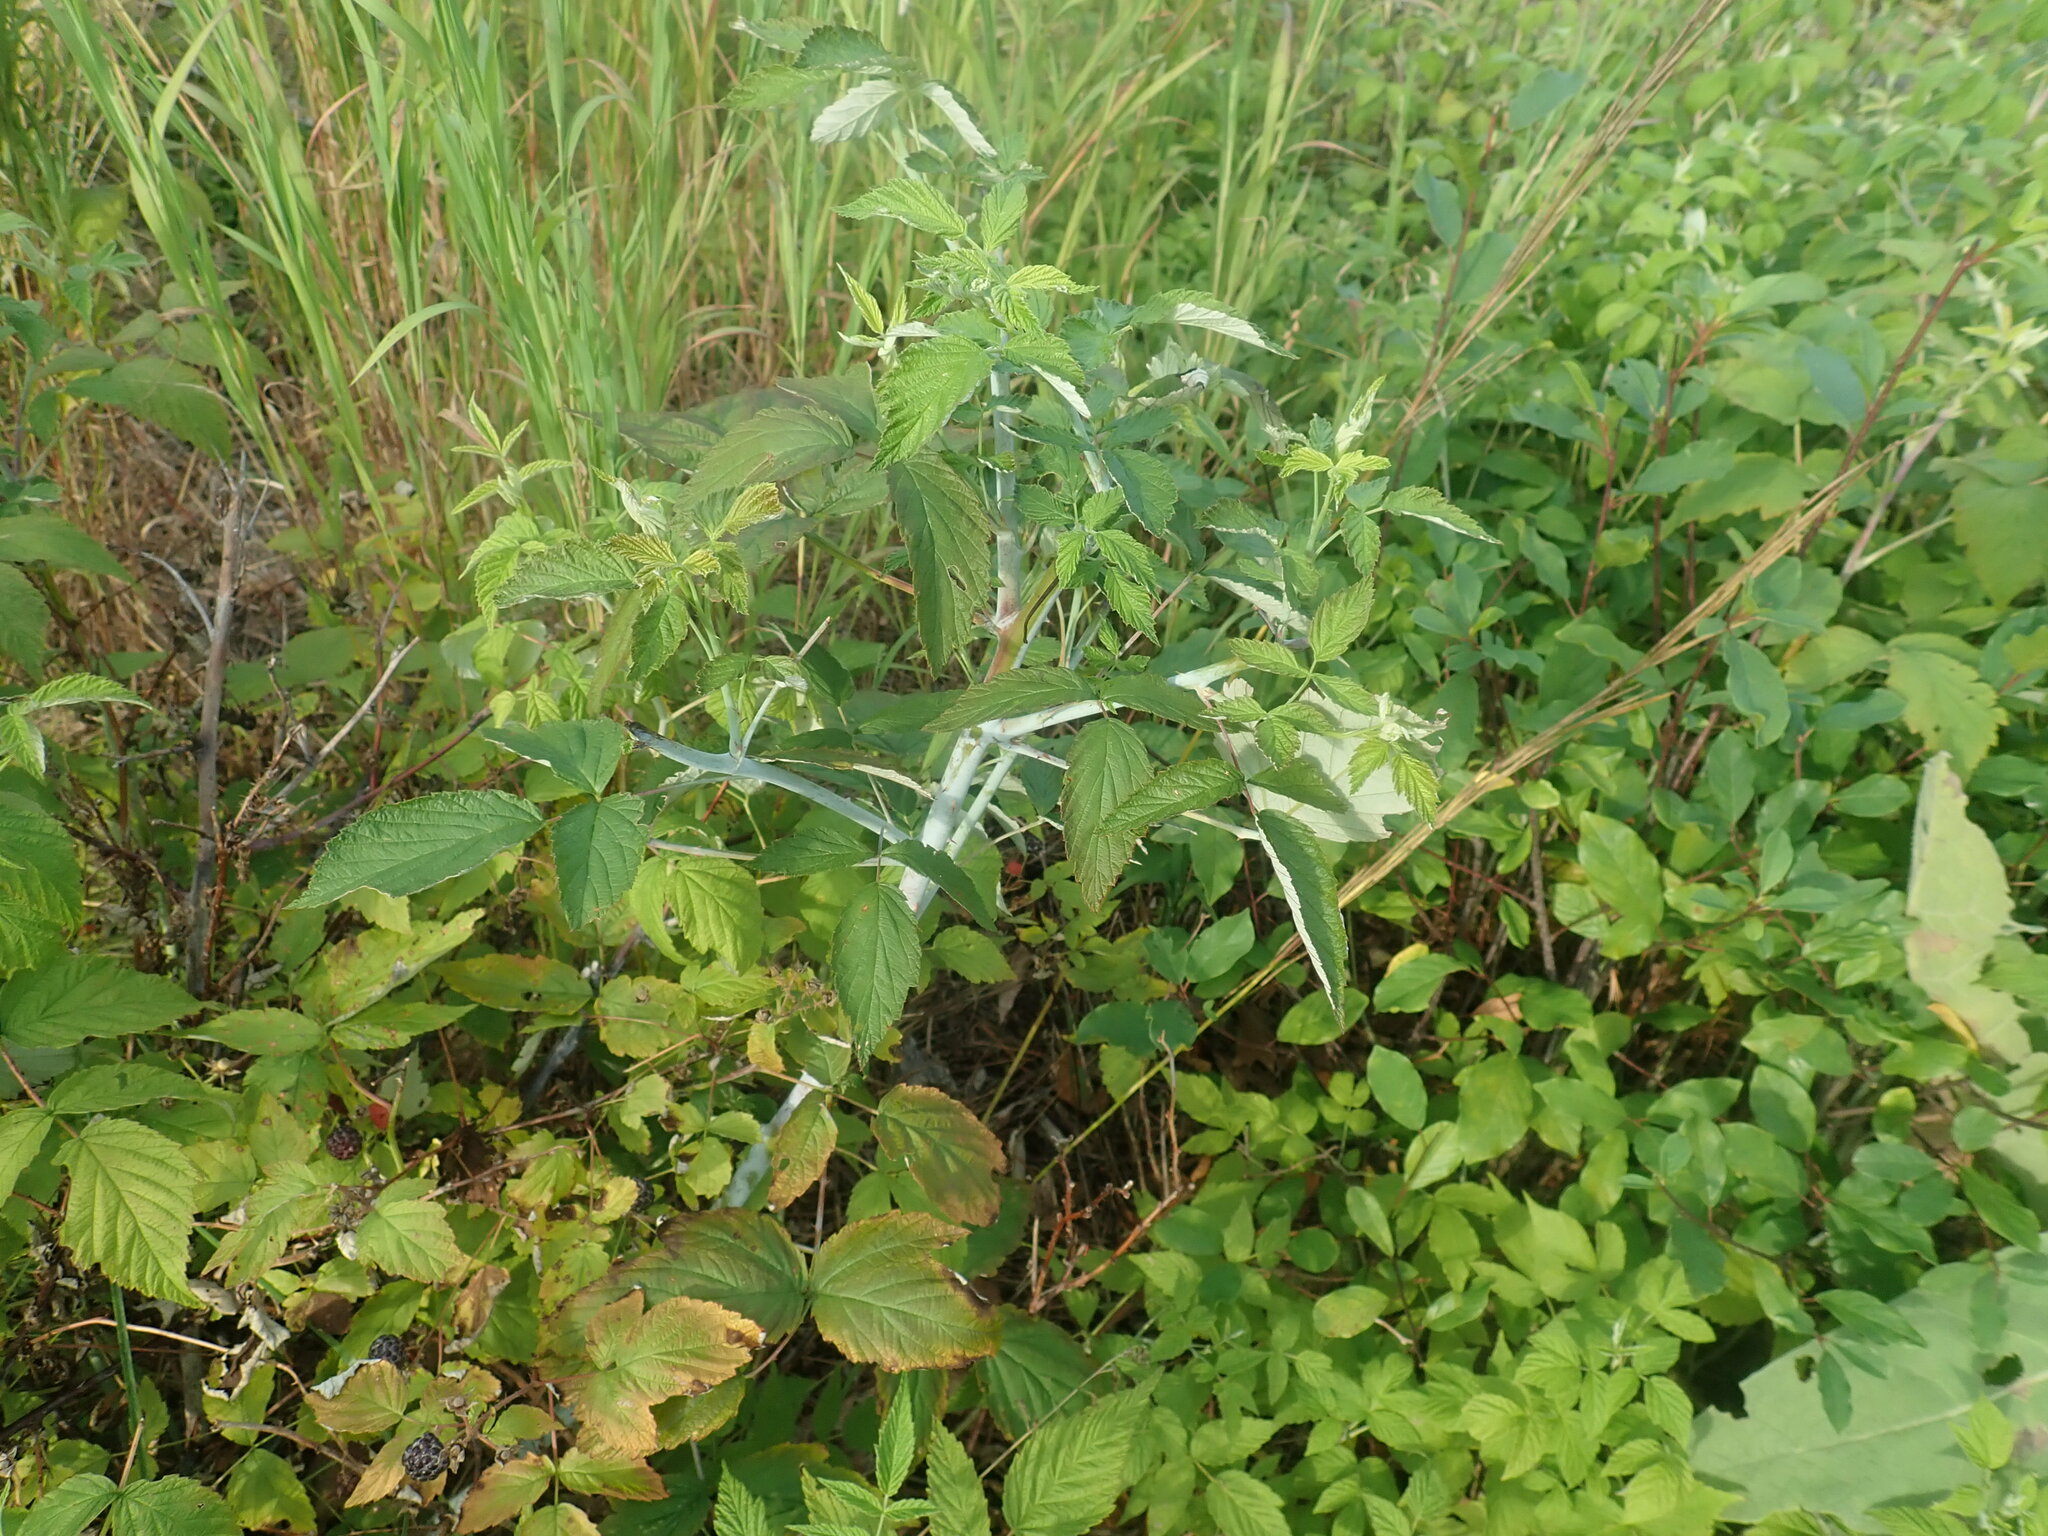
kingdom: Plantae
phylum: Tracheophyta
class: Magnoliopsida
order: Rosales
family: Rosaceae
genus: Rubus
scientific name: Rubus occidentalis
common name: Black raspberry
